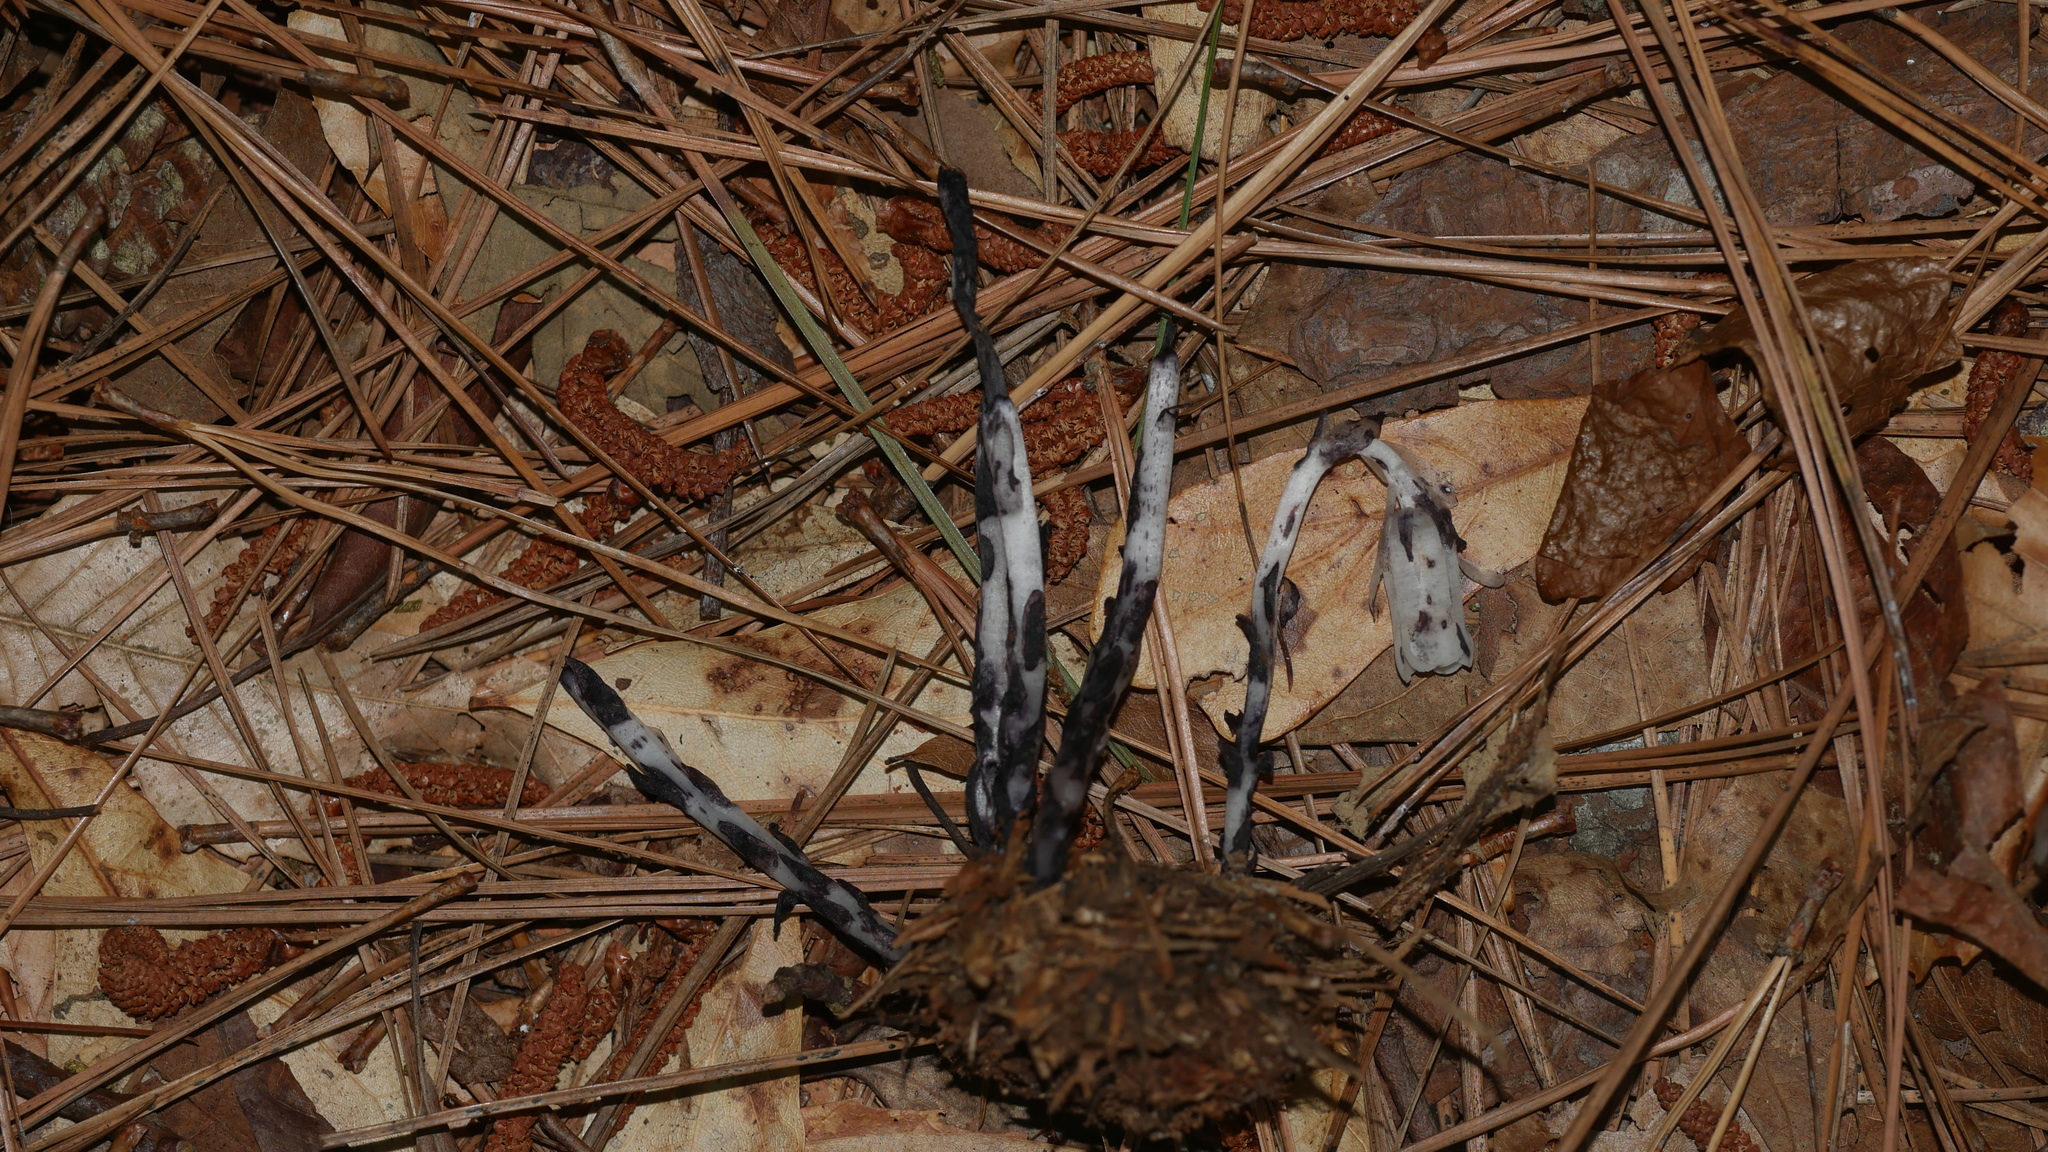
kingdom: Plantae
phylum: Tracheophyta
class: Magnoliopsida
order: Ericales
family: Ericaceae
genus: Monotropa
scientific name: Monotropa uniflora
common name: Convulsion root
